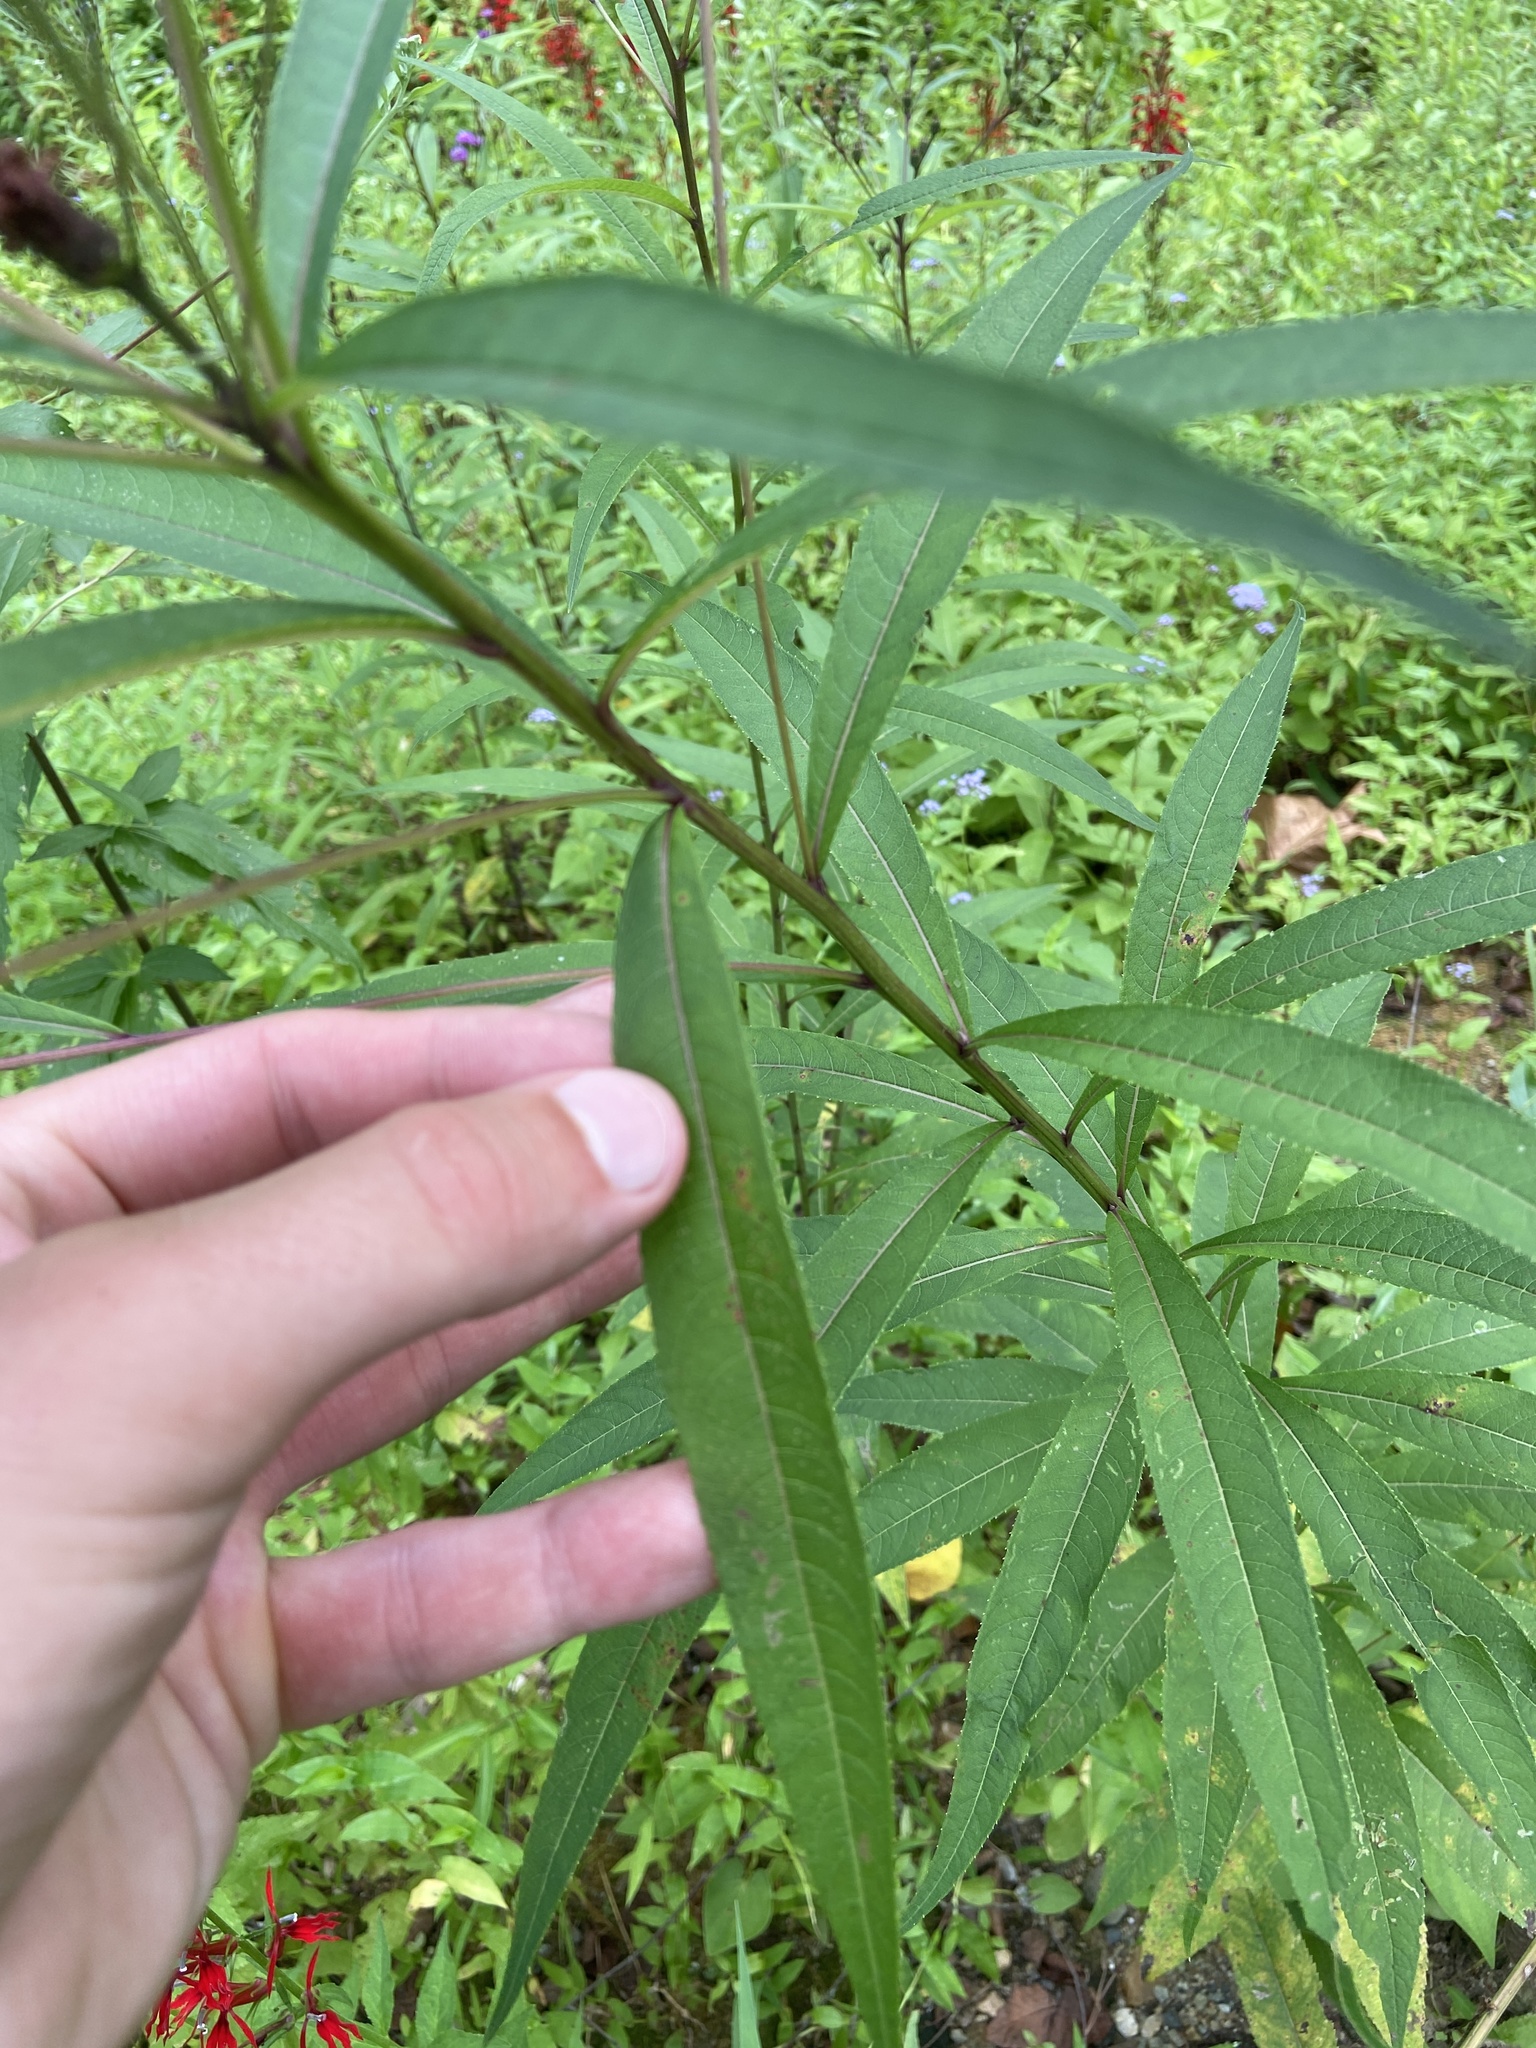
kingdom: Plantae
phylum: Tracheophyta
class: Magnoliopsida
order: Asterales
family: Asteraceae
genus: Vernonia
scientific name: Vernonia noveboracensis
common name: New york ironweed
